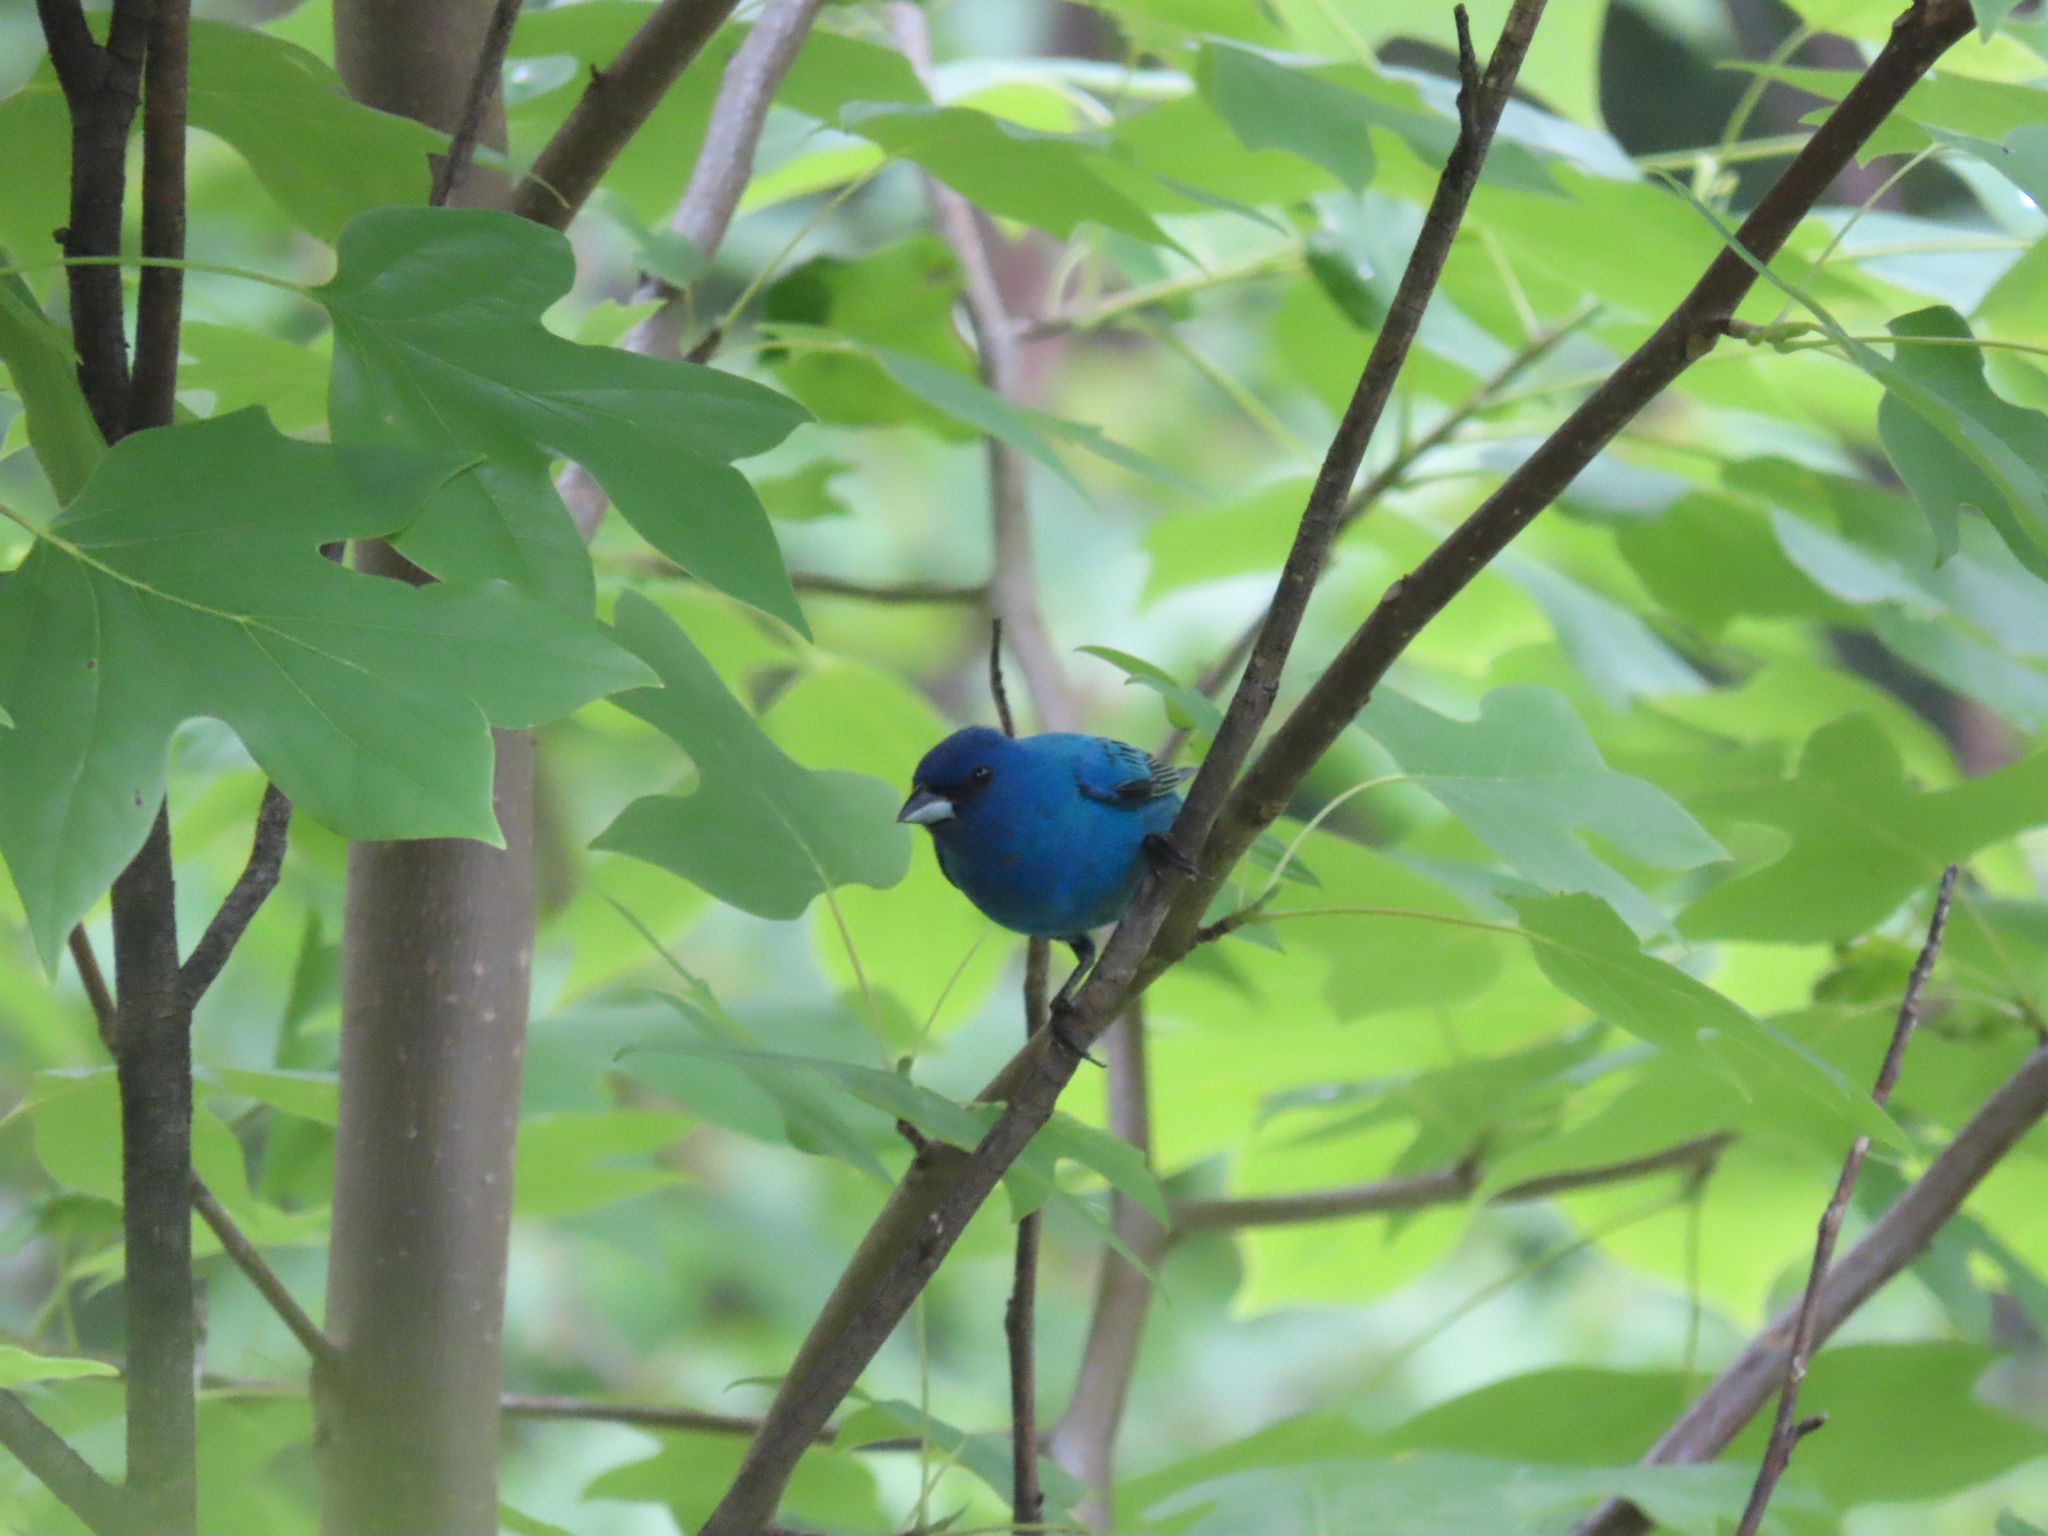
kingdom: Animalia
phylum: Chordata
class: Aves
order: Passeriformes
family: Cardinalidae
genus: Passerina
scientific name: Passerina cyanea
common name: Indigo bunting
